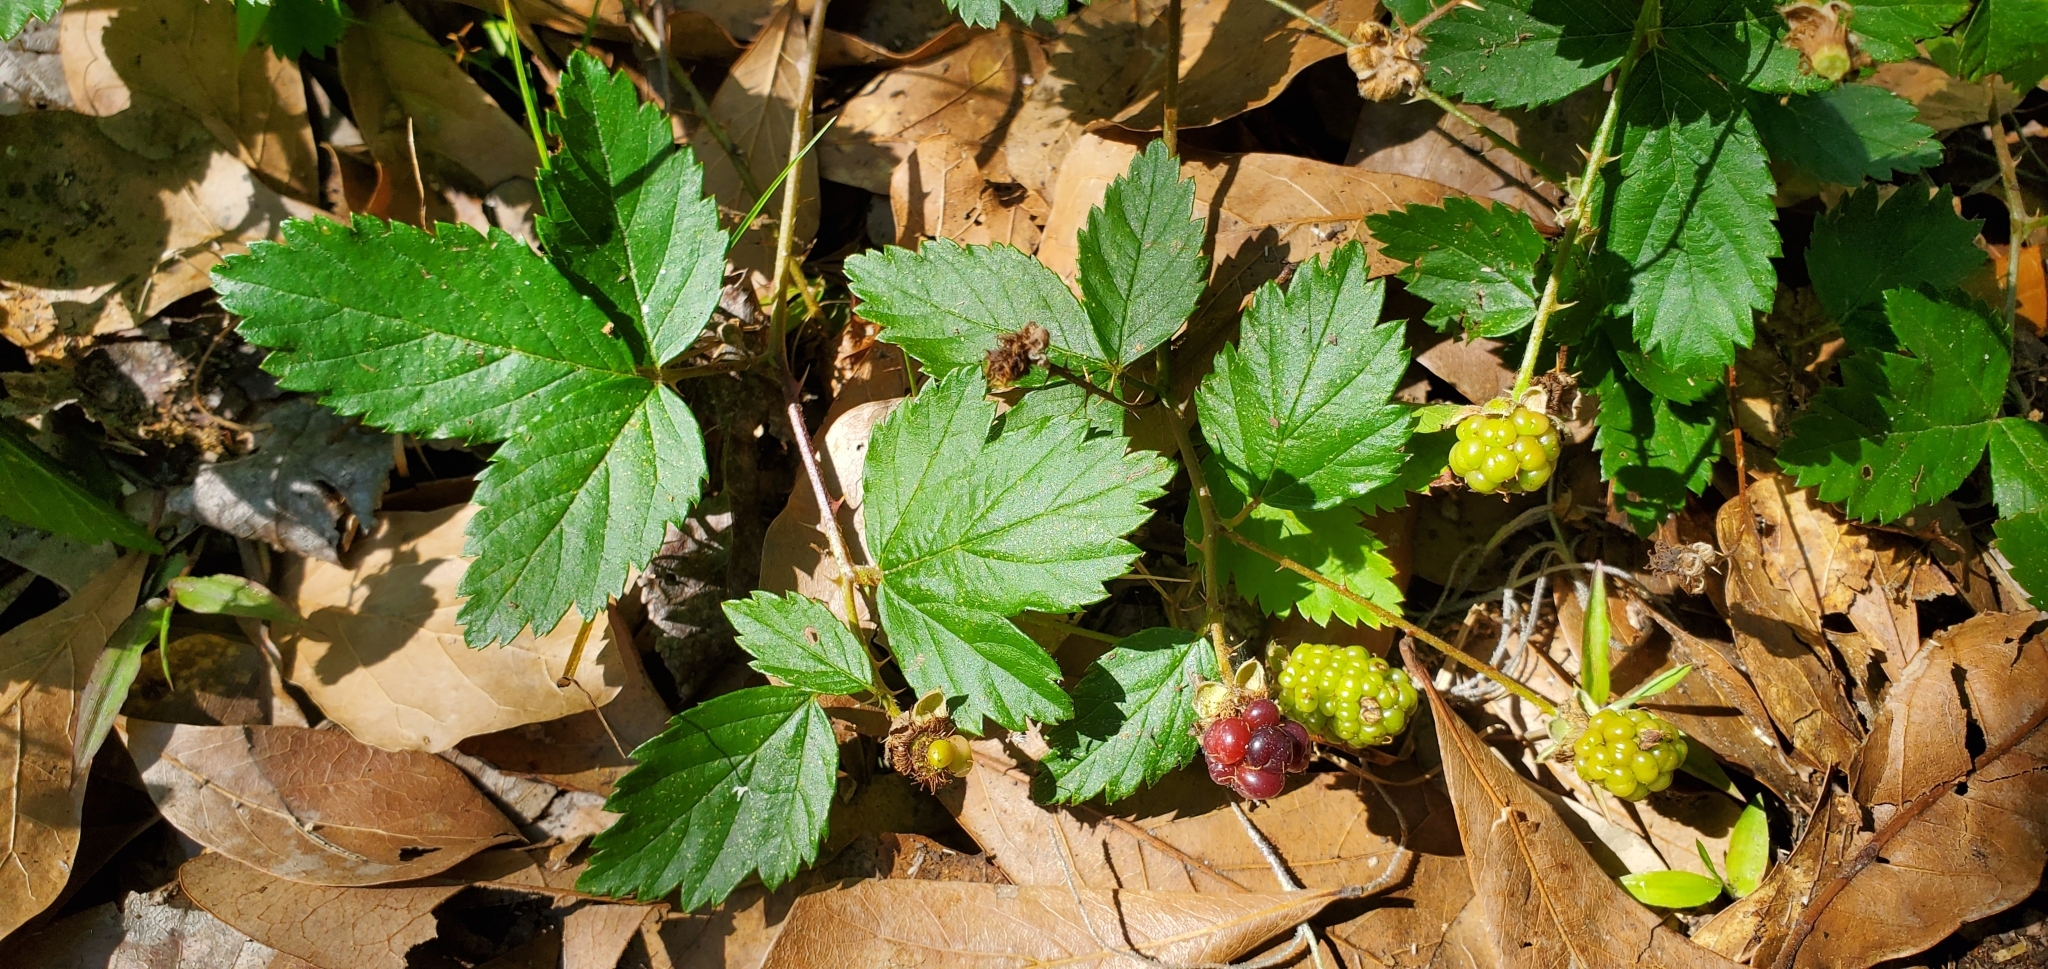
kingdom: Plantae
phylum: Tracheophyta
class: Magnoliopsida
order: Rosales
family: Rosaceae
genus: Rubus
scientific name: Rubus trivialis
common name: Southern dewberry
